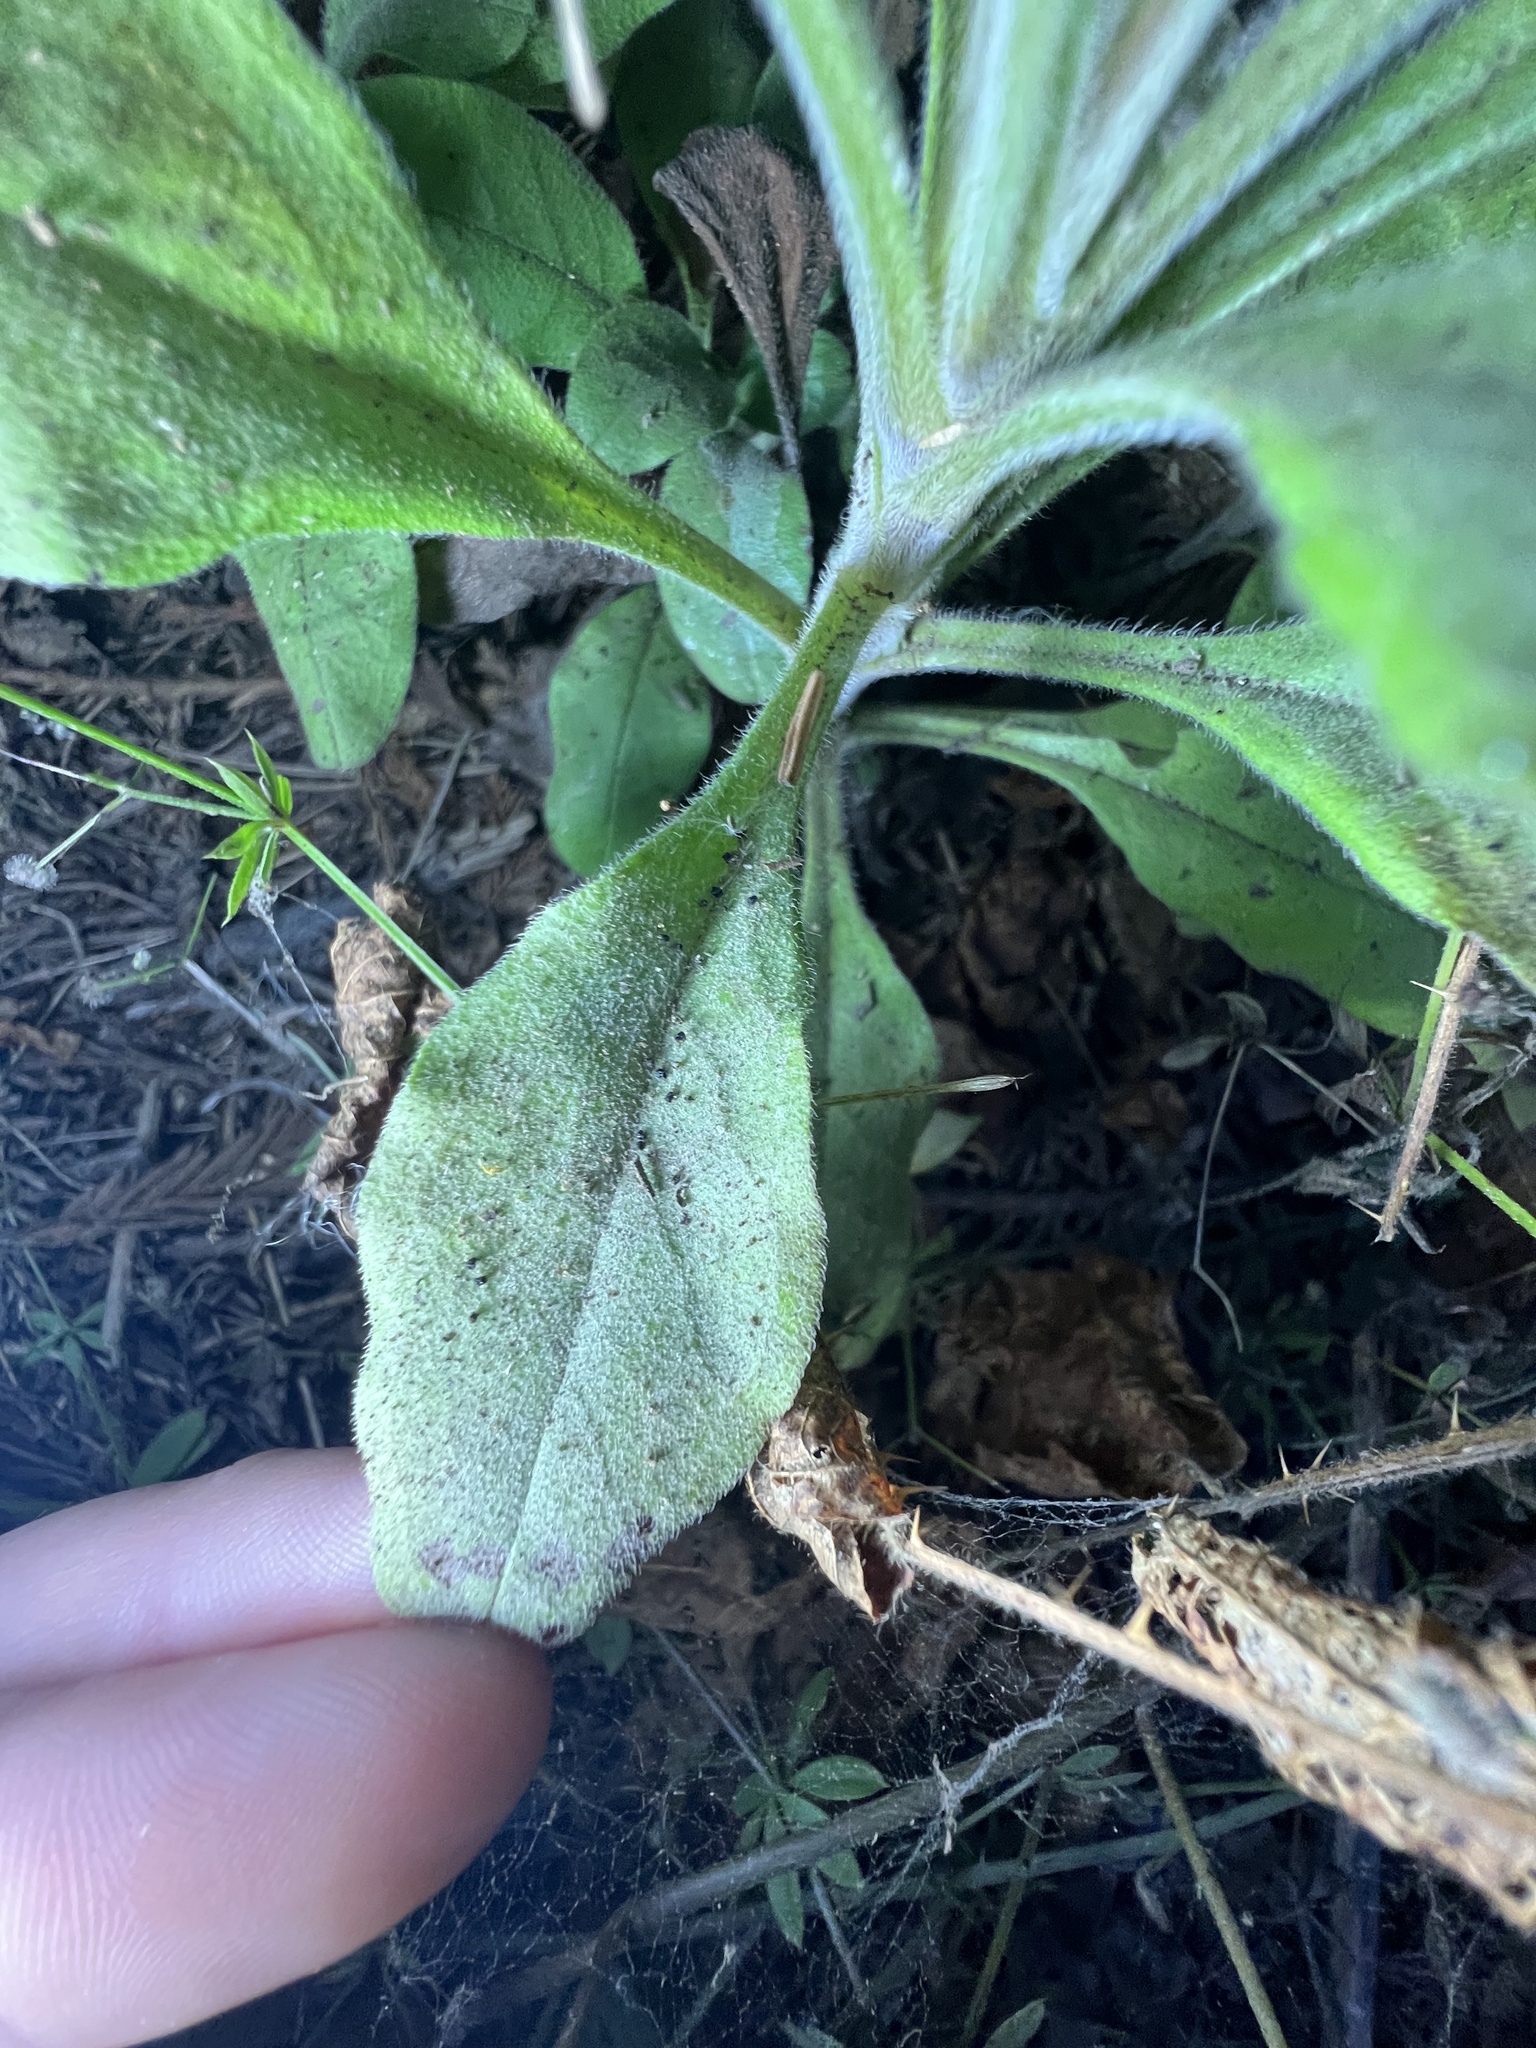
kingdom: Plantae
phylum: Tracheophyta
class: Magnoliopsida
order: Boraginales
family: Boraginaceae
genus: Myosotis
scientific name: Myosotis latifolia
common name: Broadleaf forget-me-not
